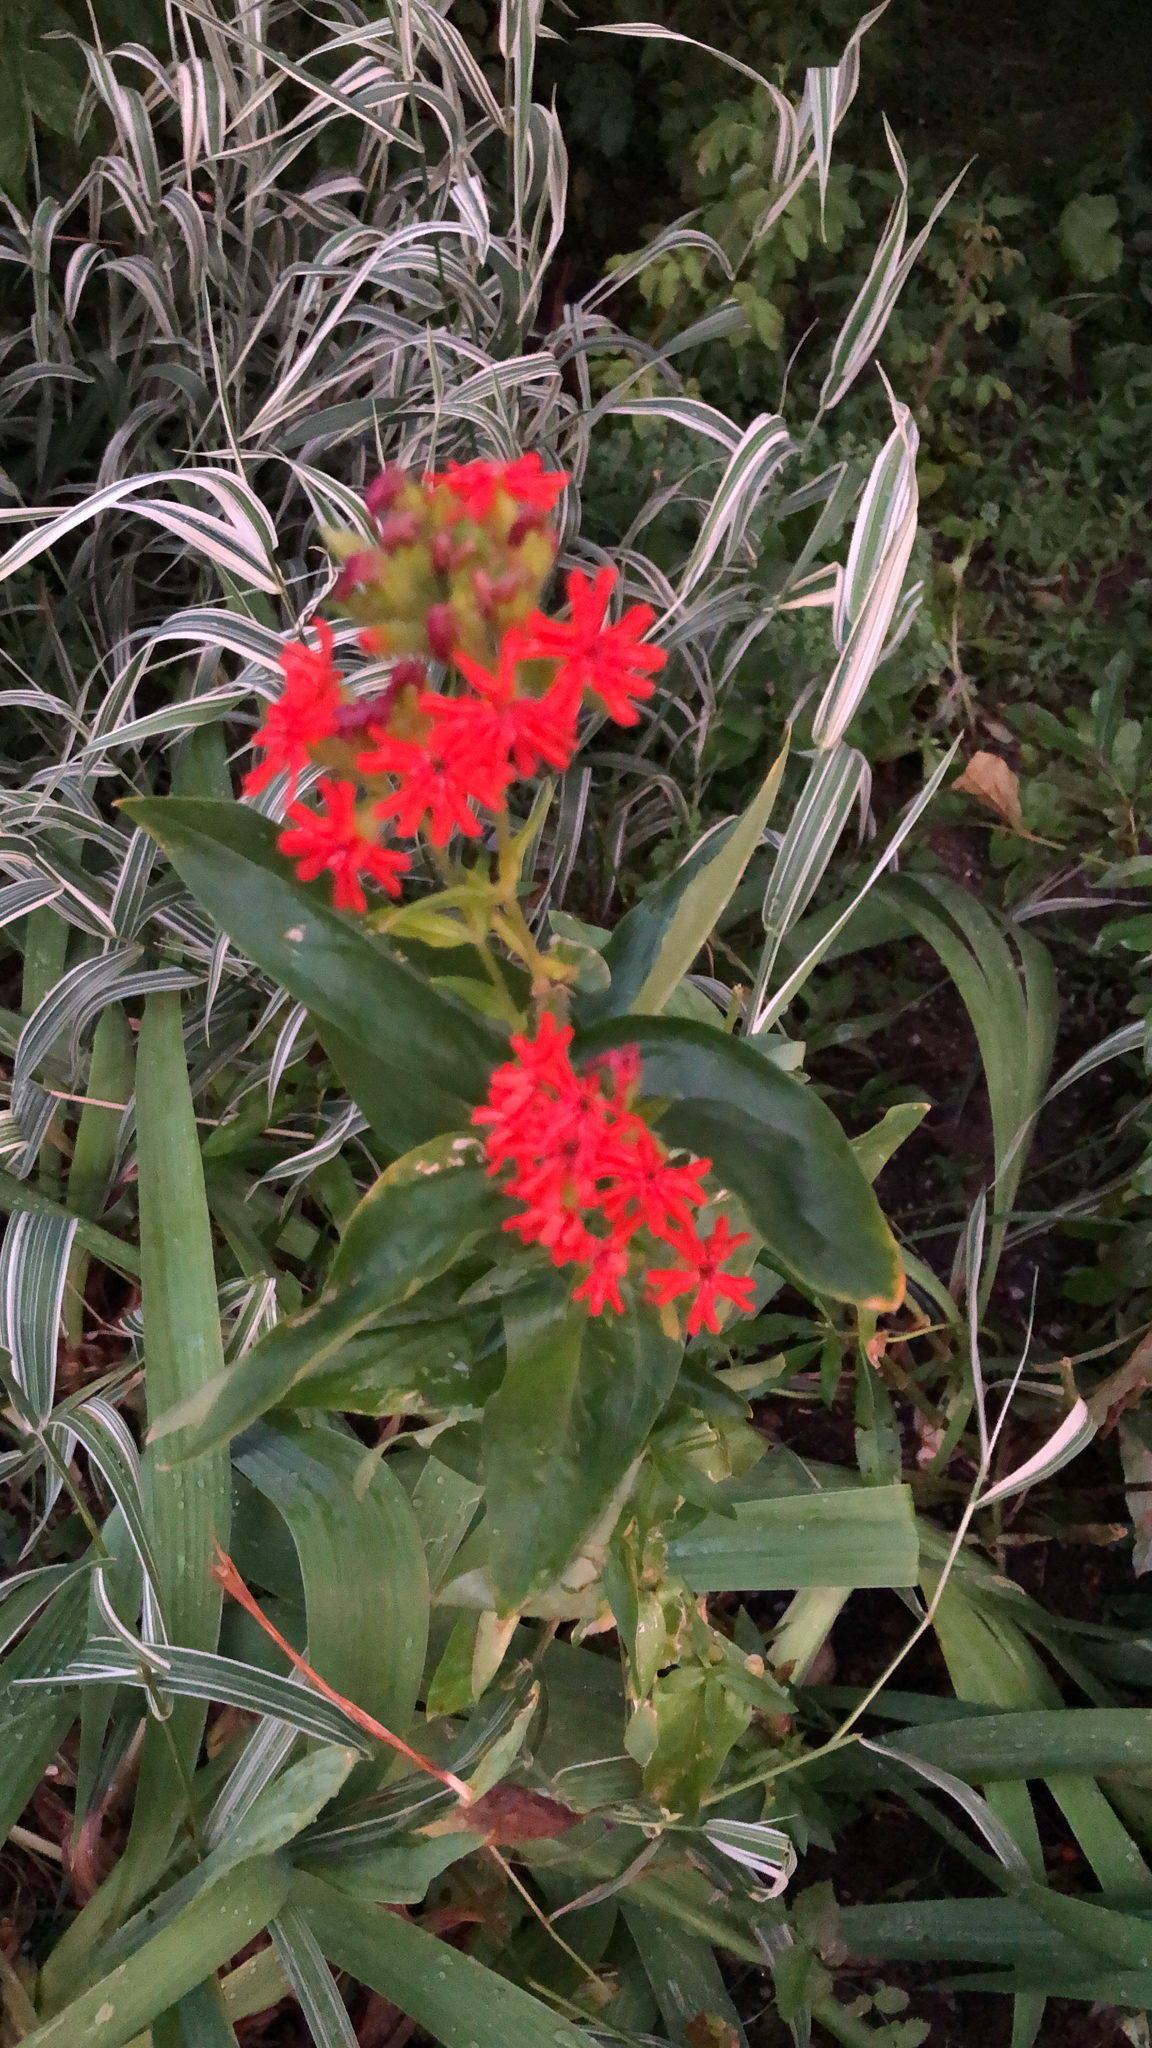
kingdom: Plantae
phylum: Tracheophyta
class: Magnoliopsida
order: Caryophyllales
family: Caryophyllaceae
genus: Silene
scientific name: Silene chalcedonica
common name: Maltese-cross
